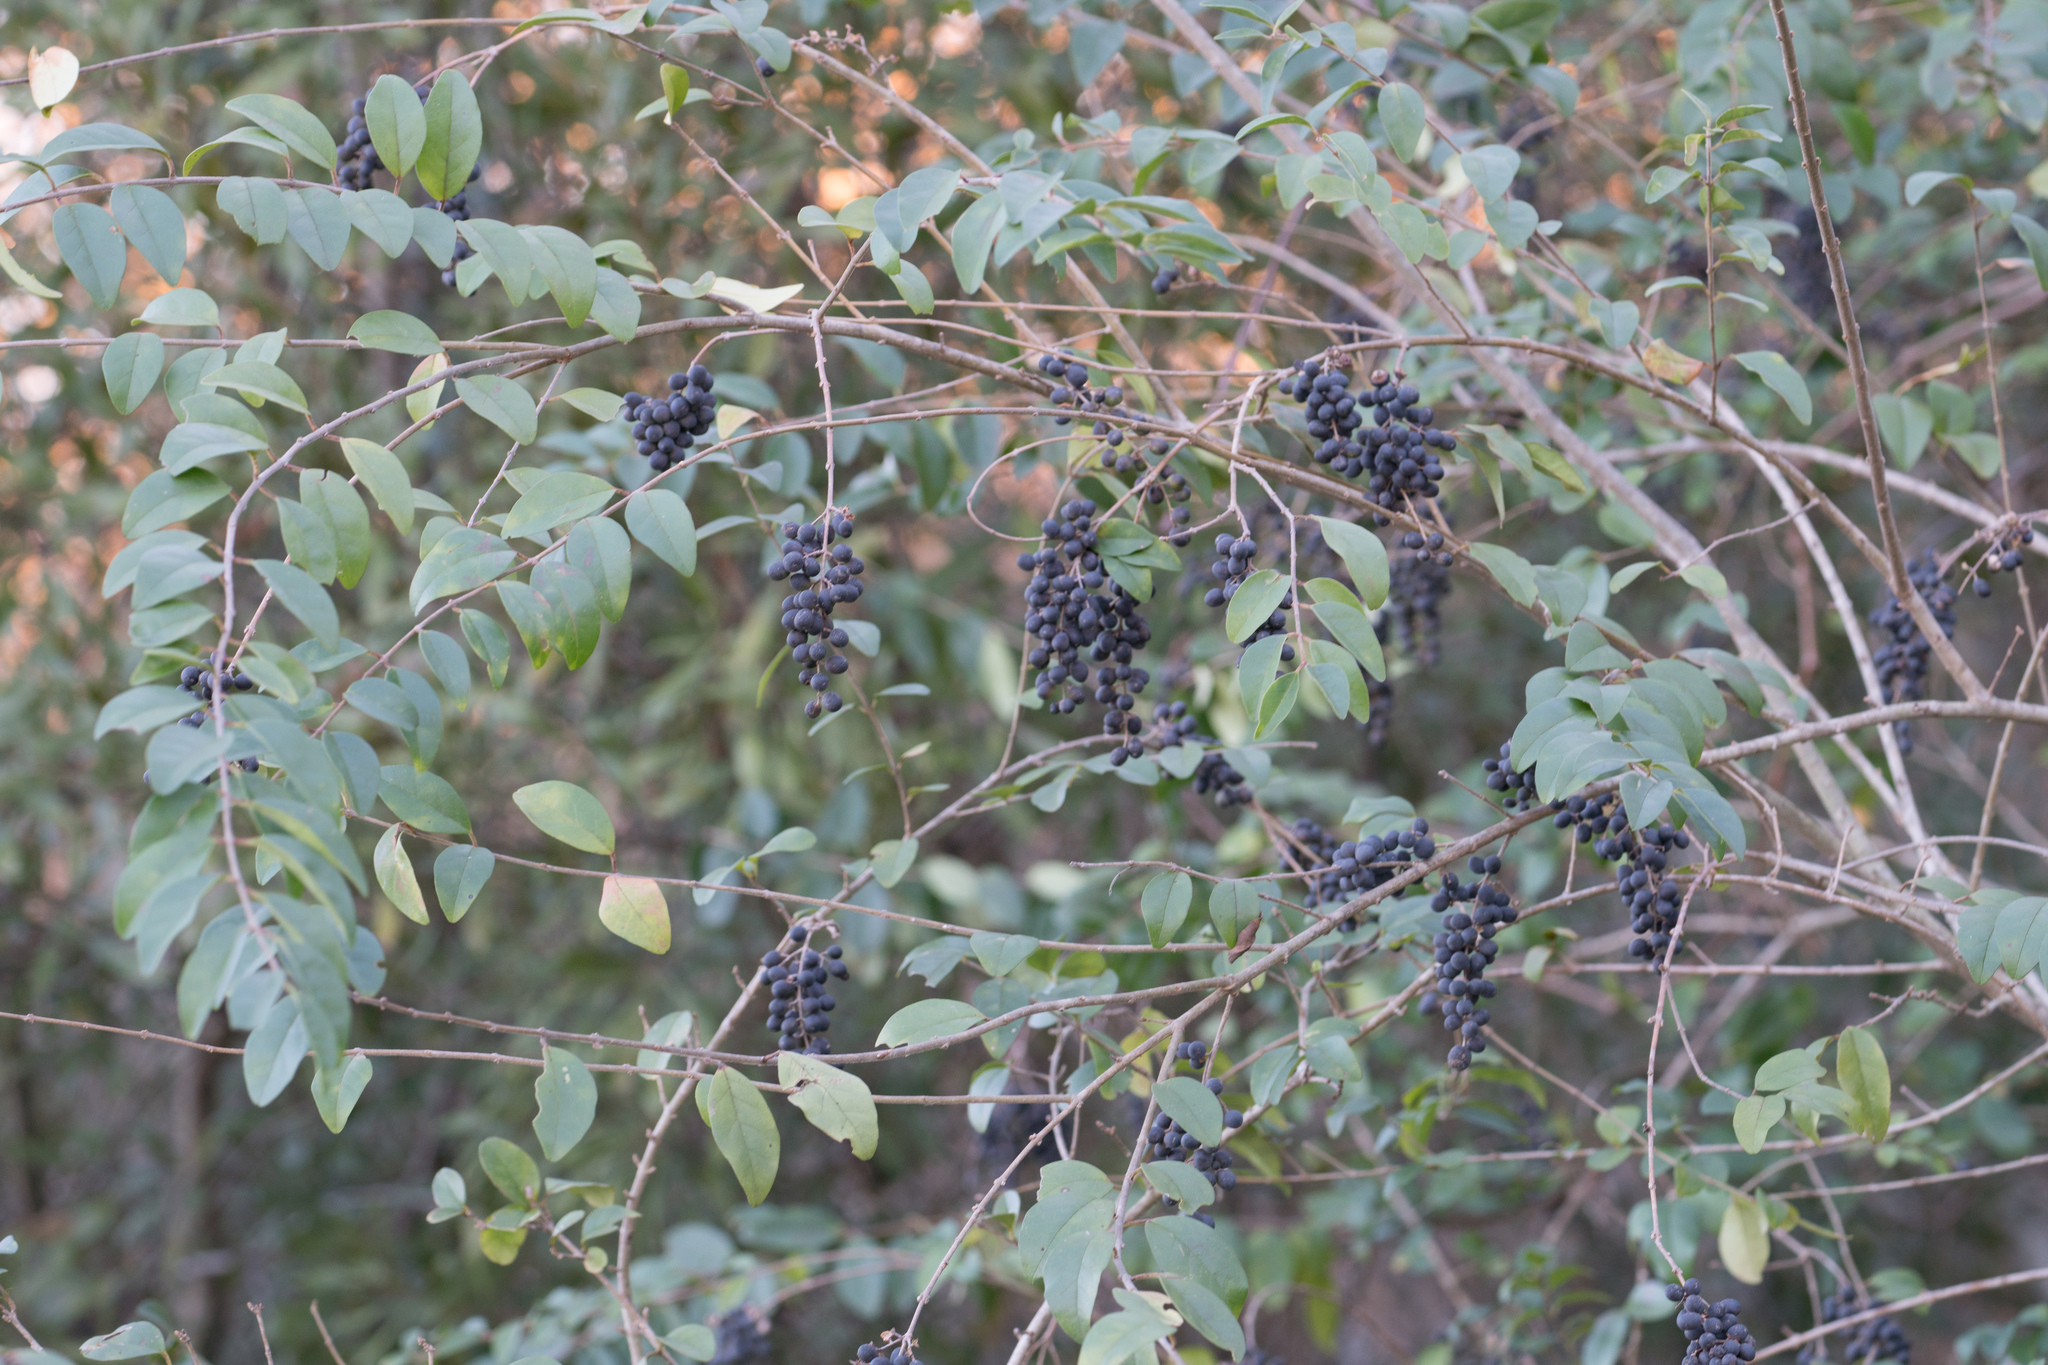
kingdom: Plantae
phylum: Tracheophyta
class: Magnoliopsida
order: Lamiales
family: Oleaceae
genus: Ligustrum
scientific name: Ligustrum sinense
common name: Chinese privet
